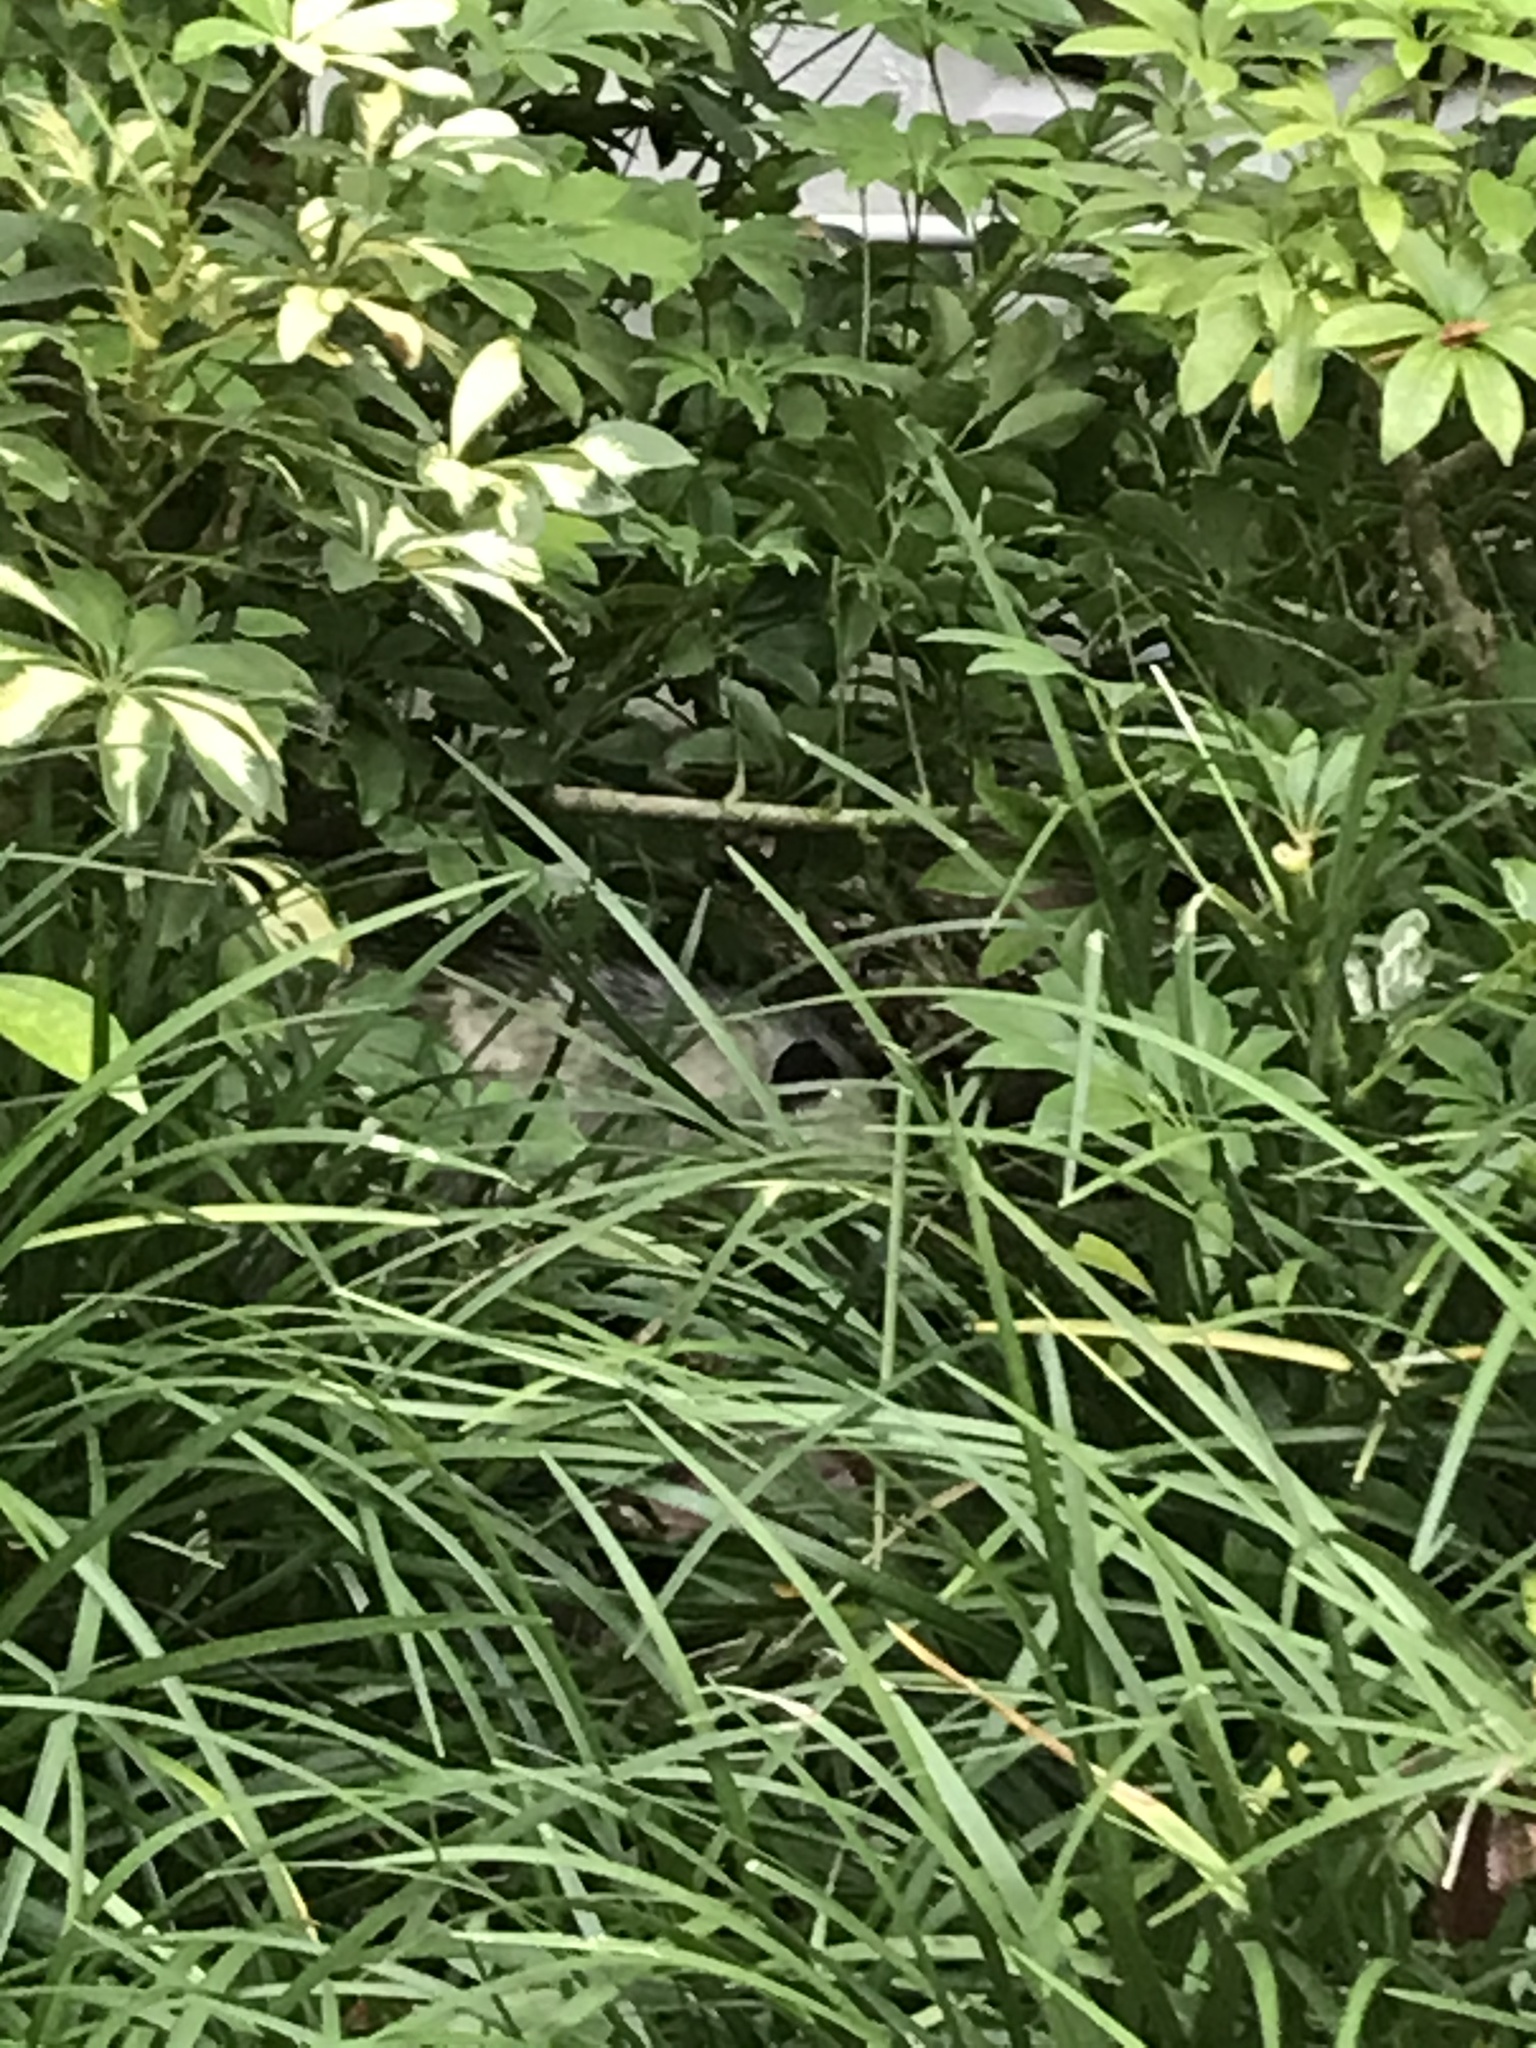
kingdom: Animalia
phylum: Chordata
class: Mammalia
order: Didelphimorphia
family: Didelphidae
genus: Didelphis
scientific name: Didelphis virginiana
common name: Virginia opossum
